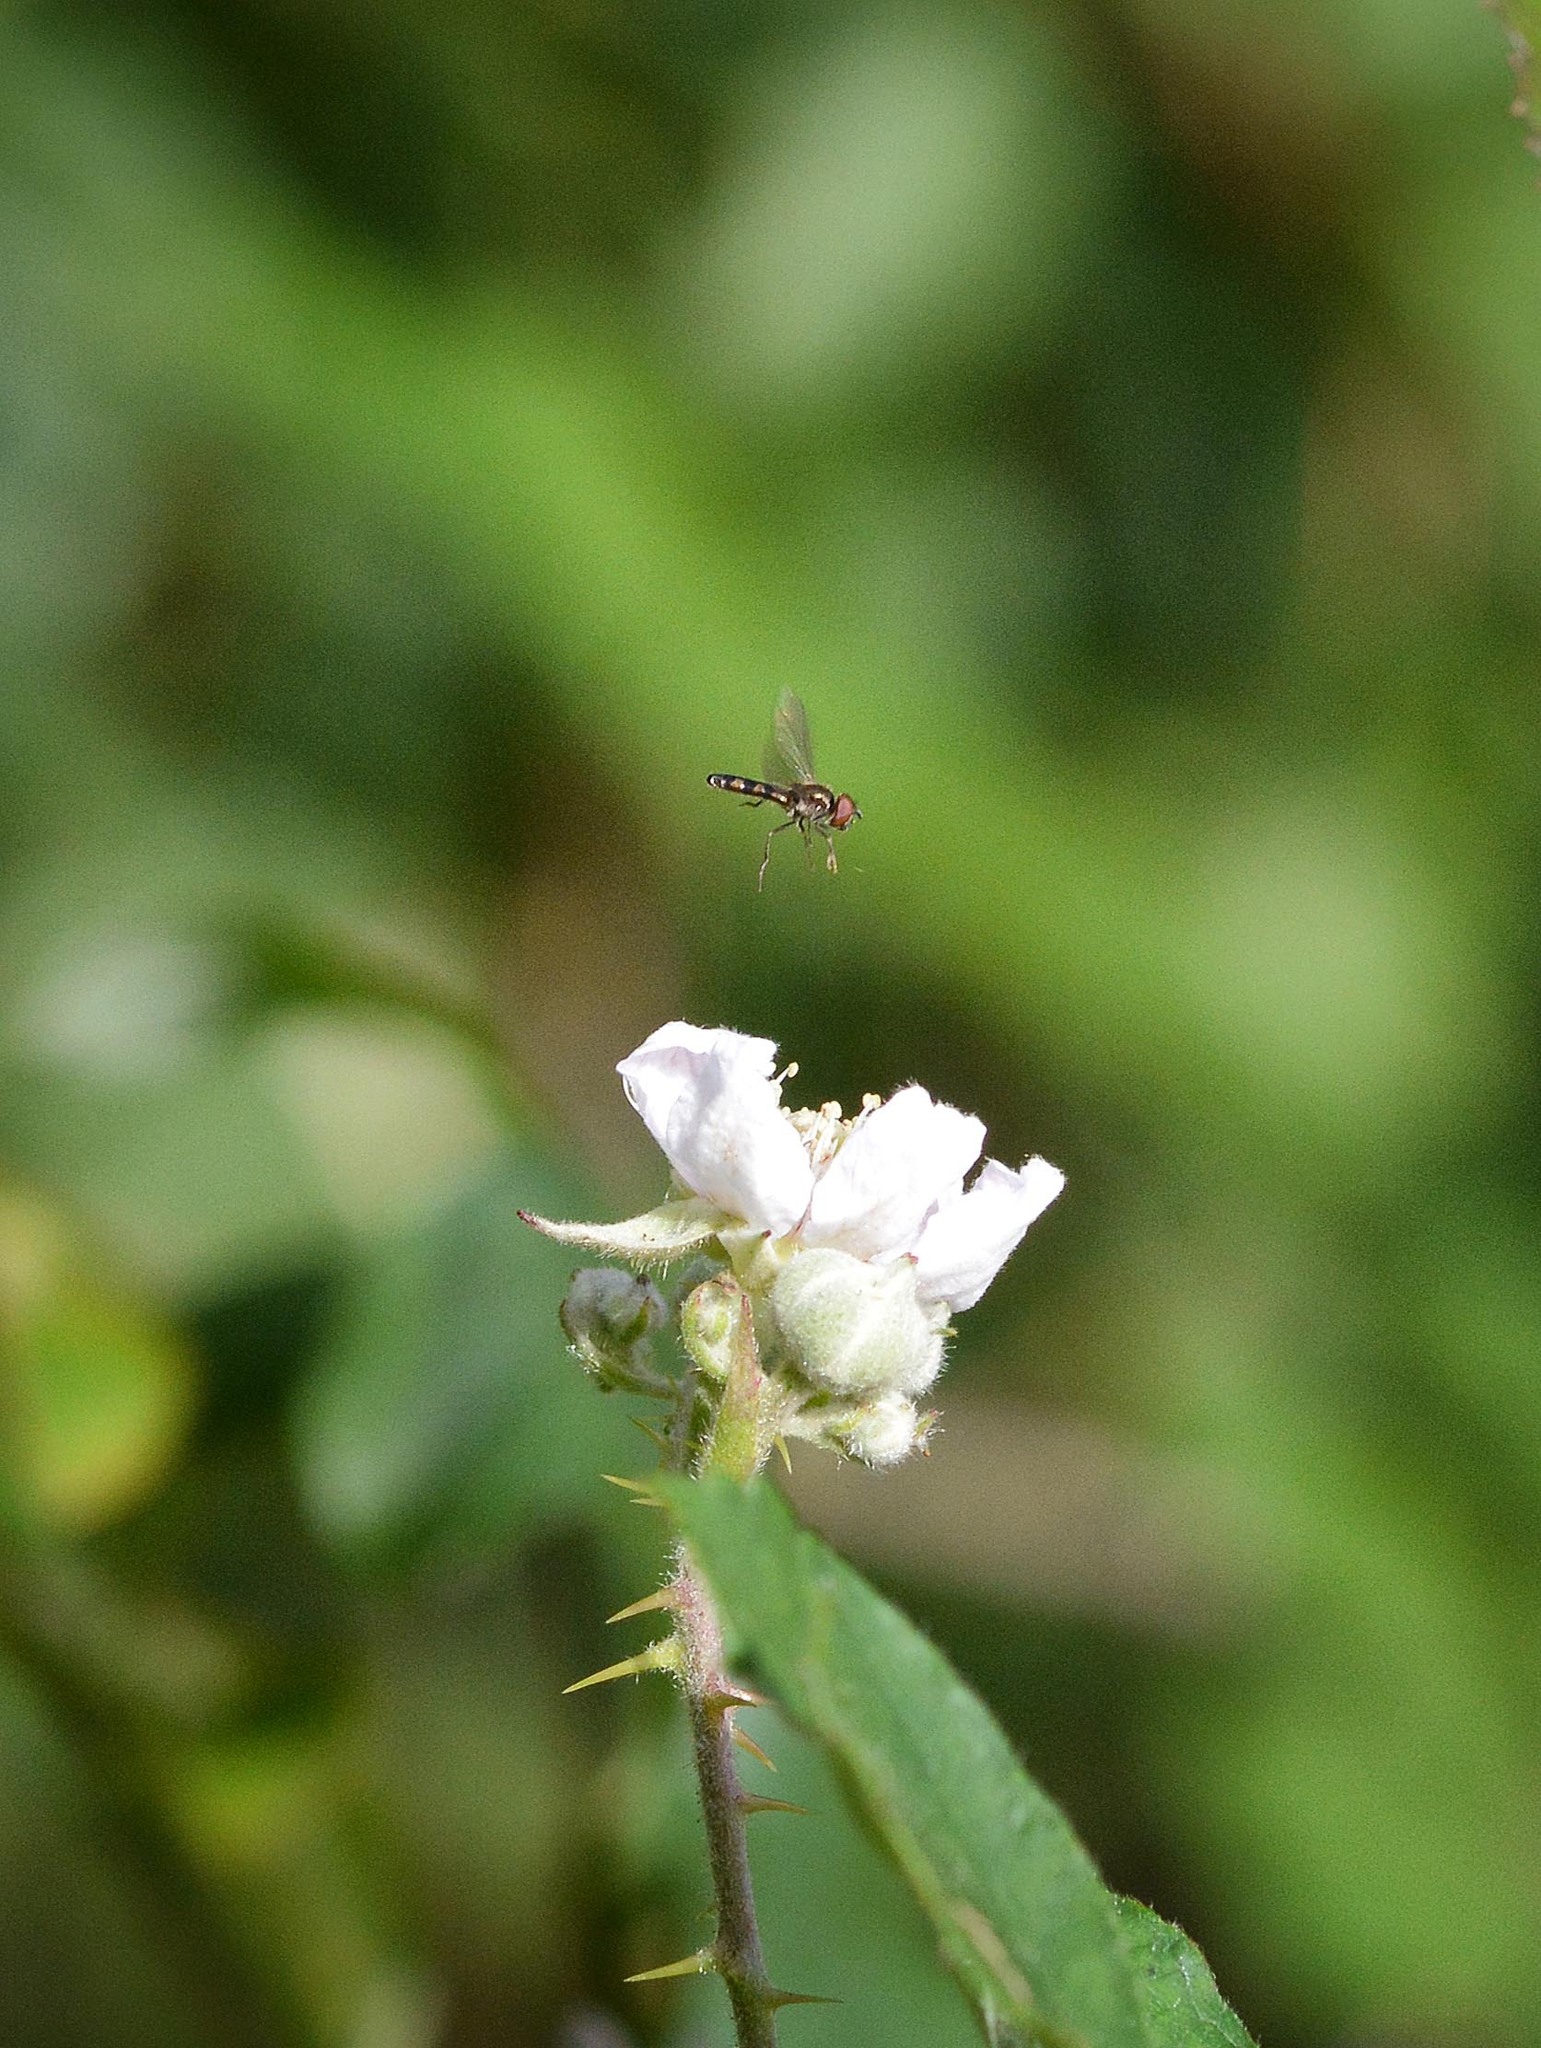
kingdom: Animalia
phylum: Arthropoda
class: Insecta
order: Diptera
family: Syrphidae
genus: Platycheirus
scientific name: Platycheirus
